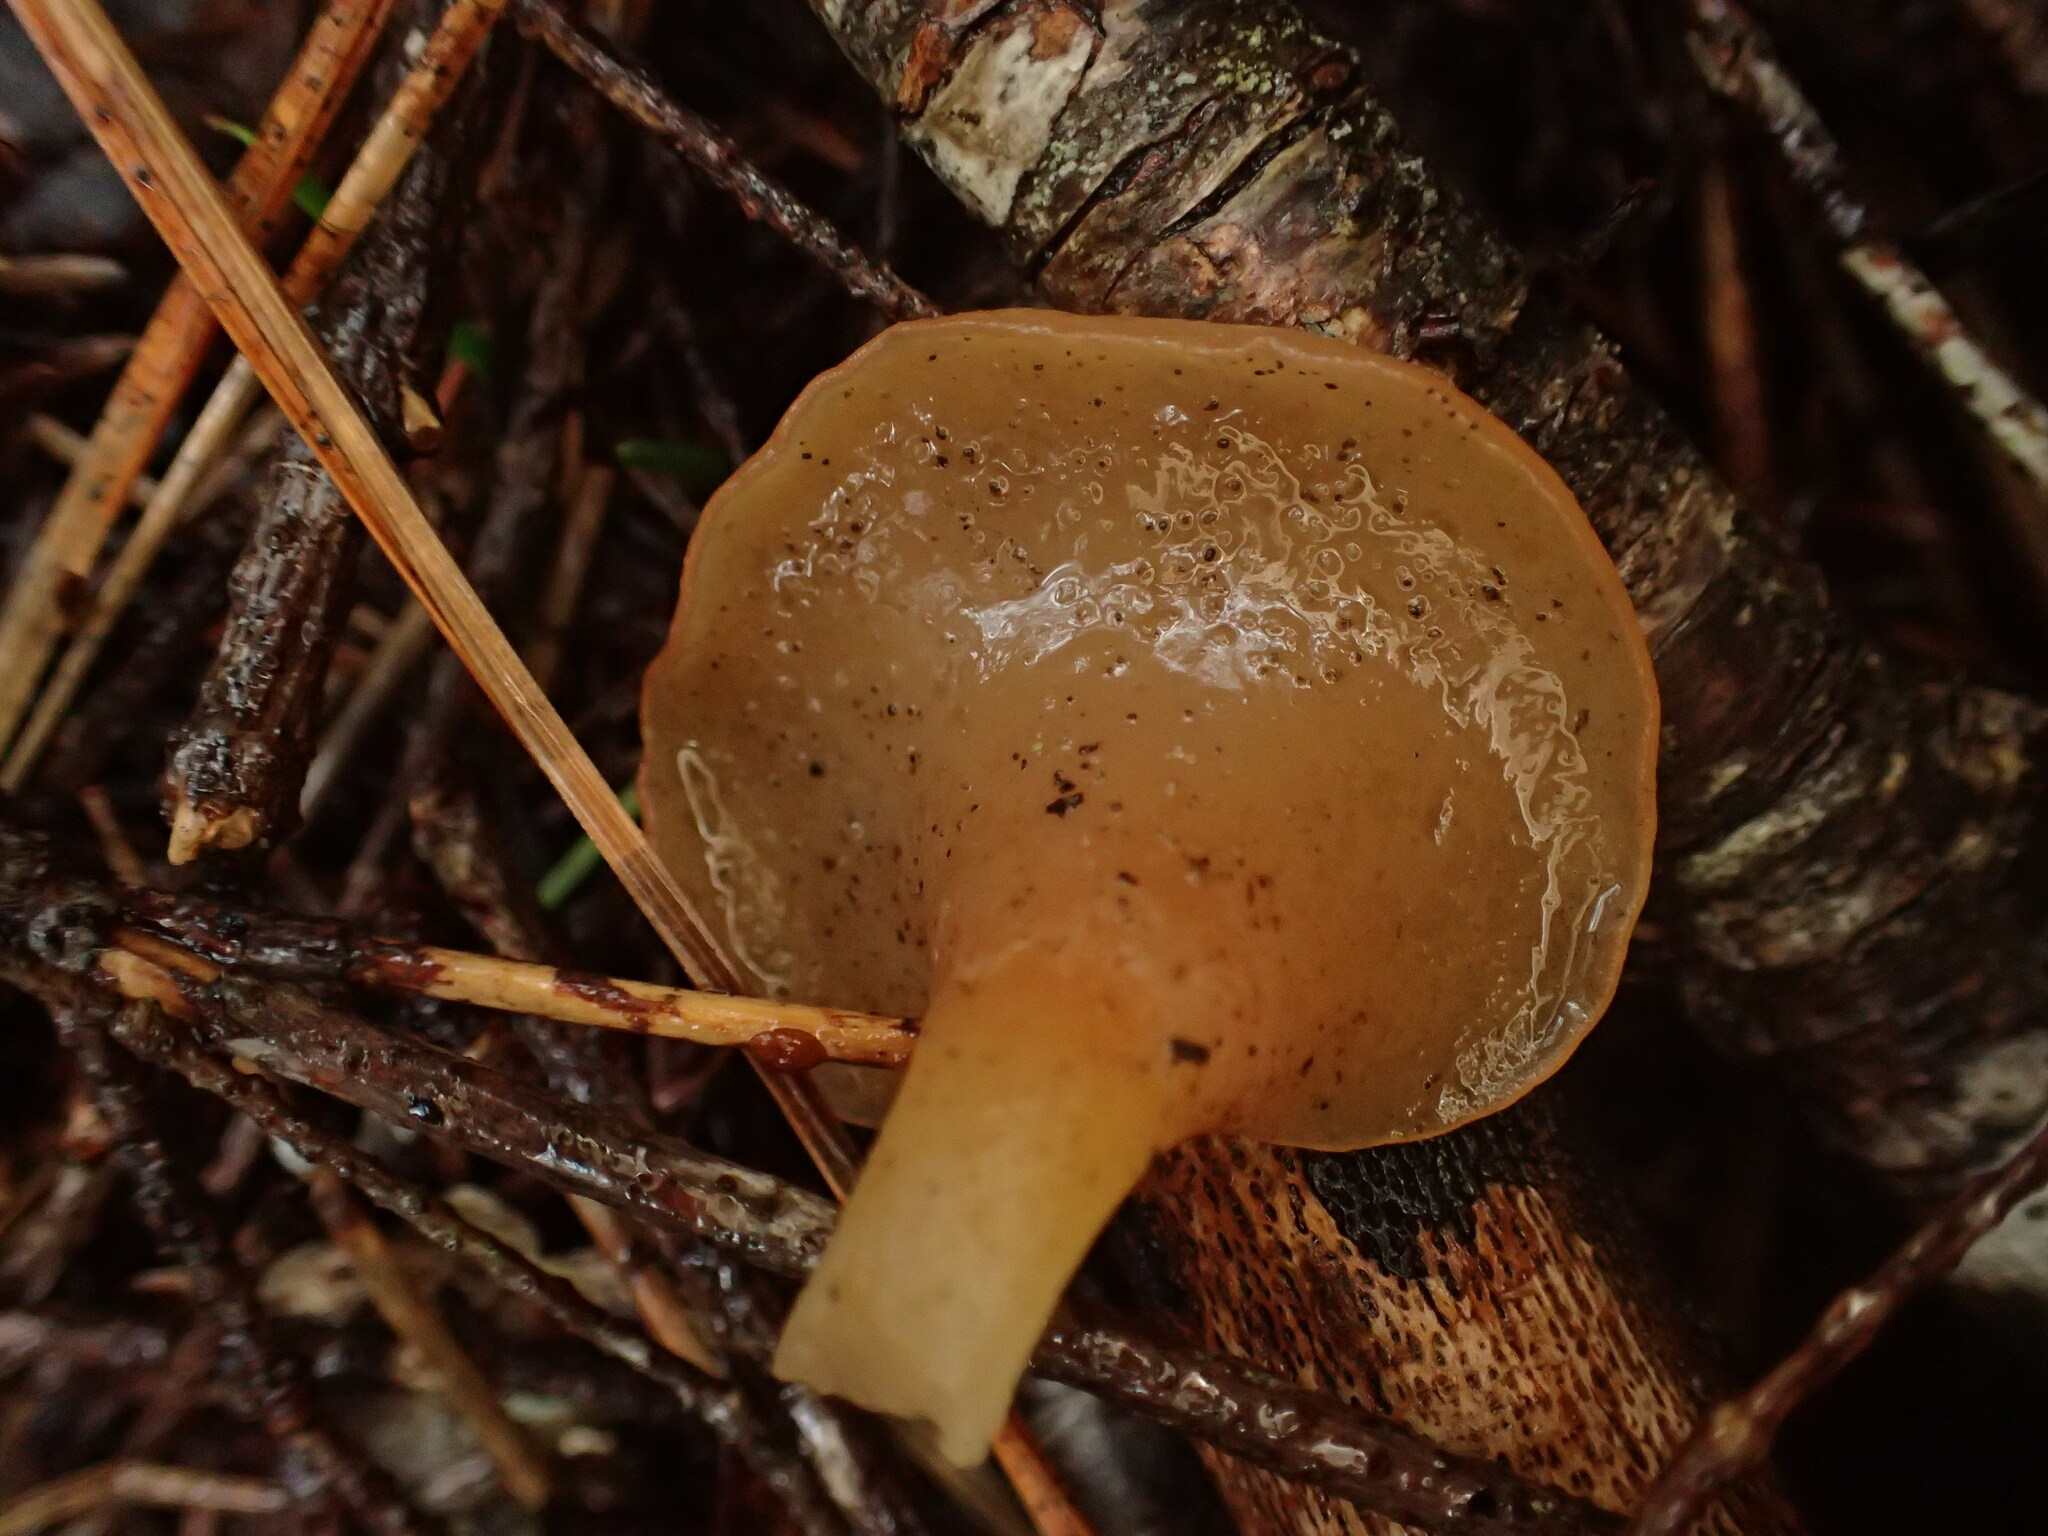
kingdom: Fungi
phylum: Basidiomycota
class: Agaricomycetes
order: Auriculariales
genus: Guepinia
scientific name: Guepinia helvelloides
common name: Salmon salad
